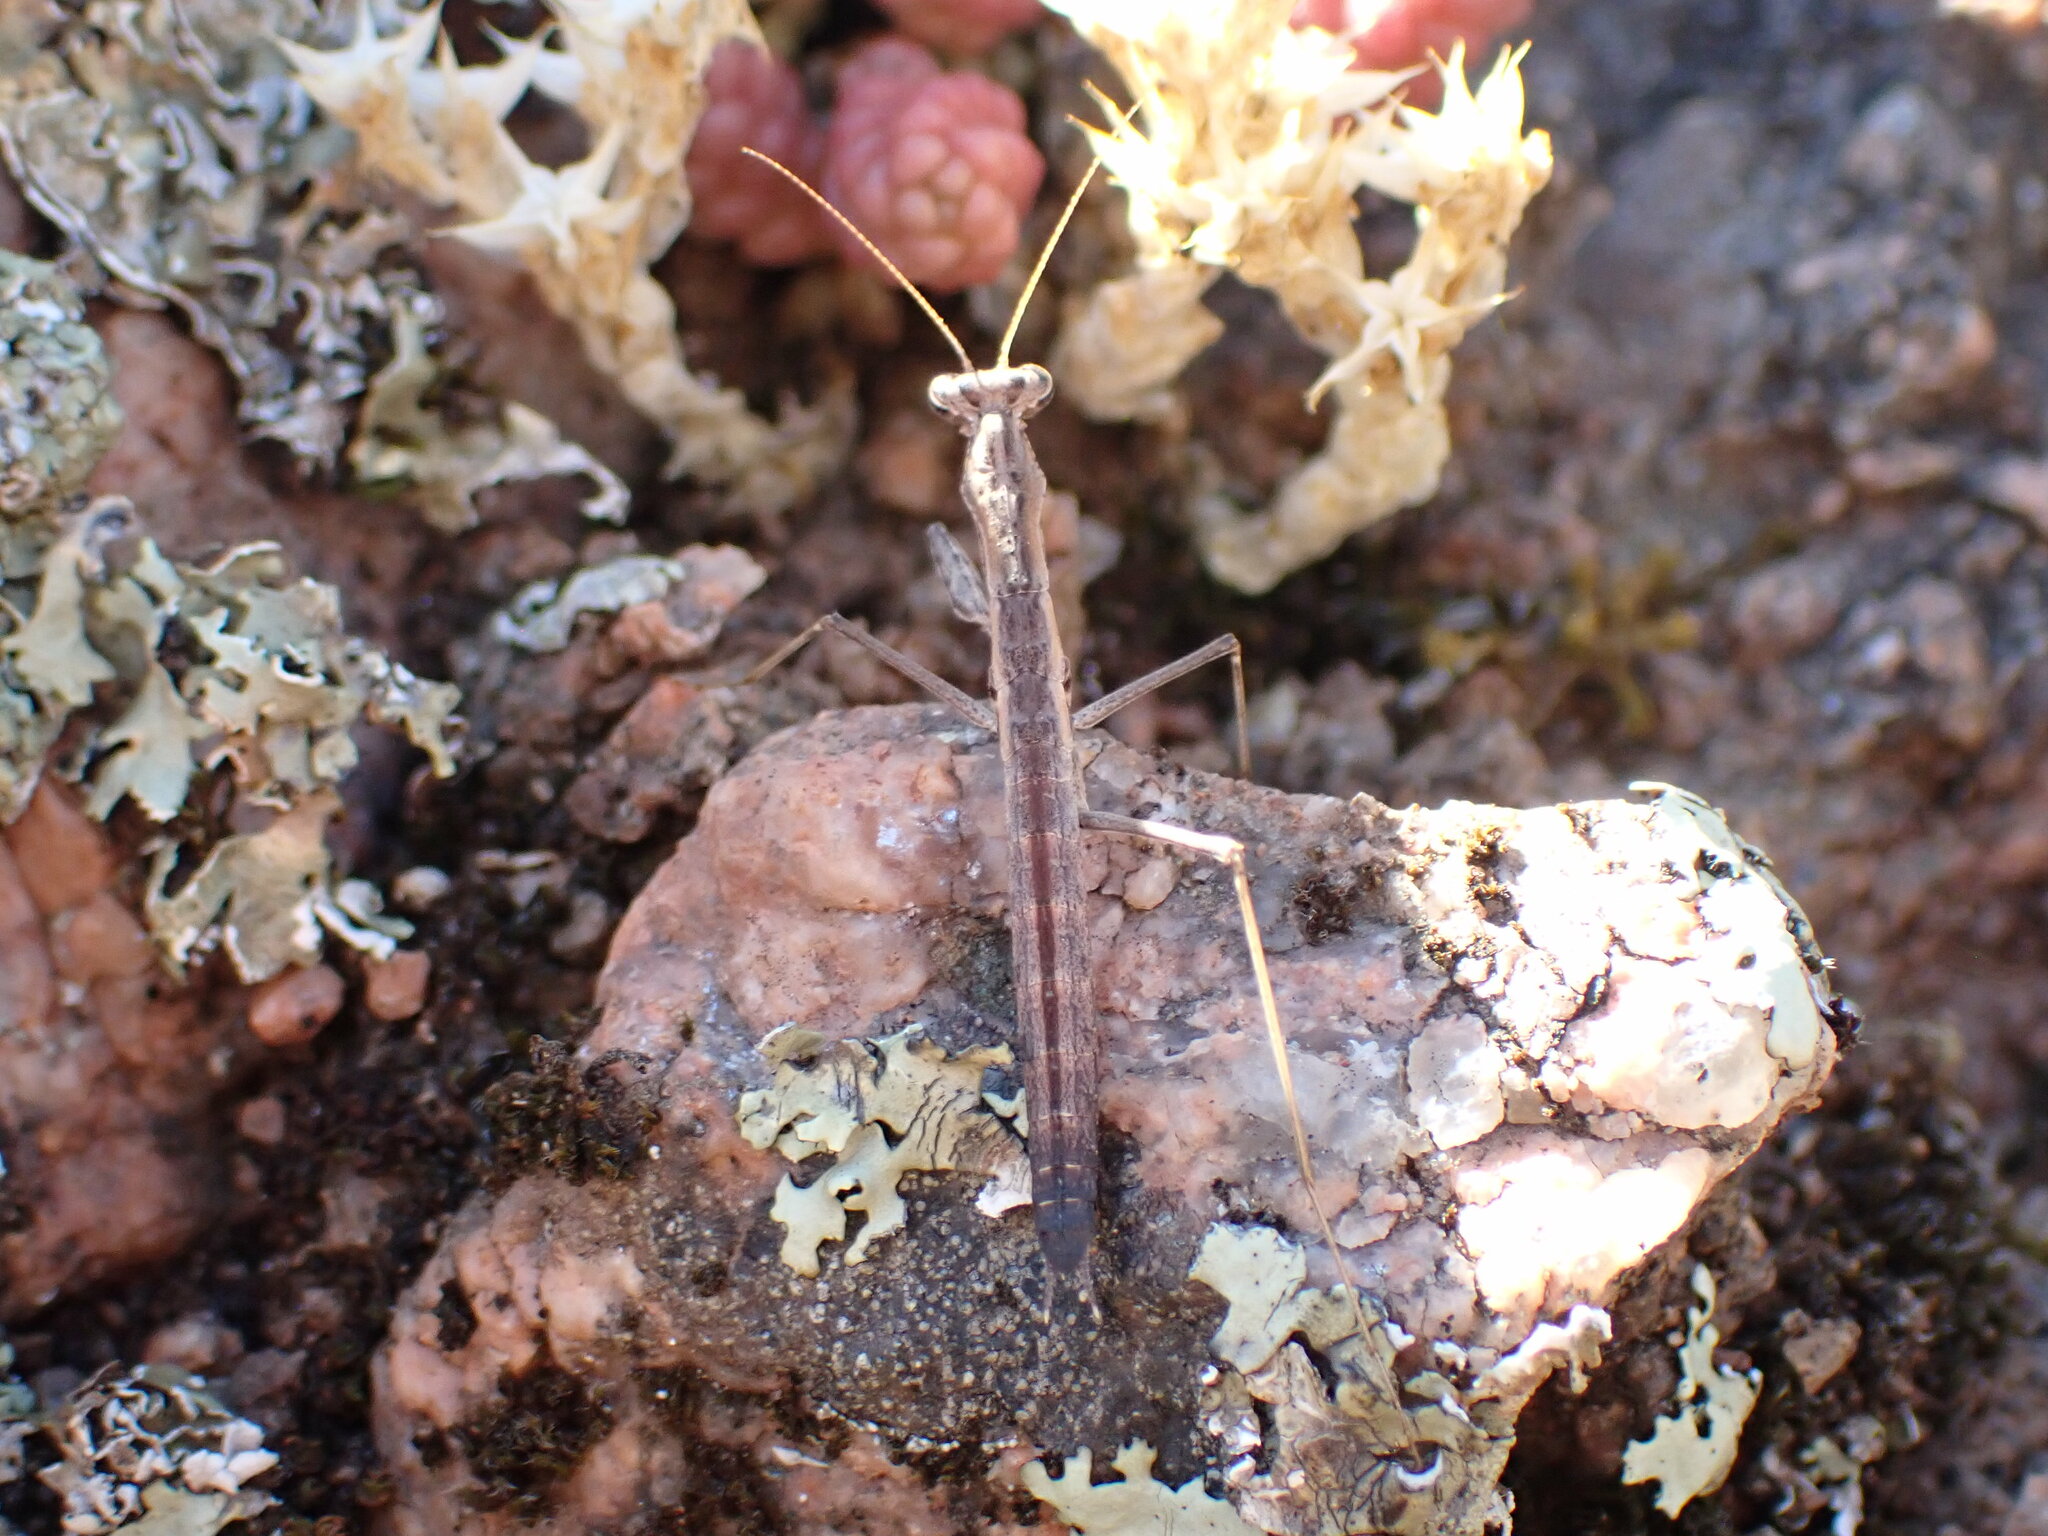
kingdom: Animalia
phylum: Arthropoda
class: Insecta
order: Mantodea
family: Rivetinidae
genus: Geomantis
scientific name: Geomantis larvoides
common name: Wingless ground mantis
